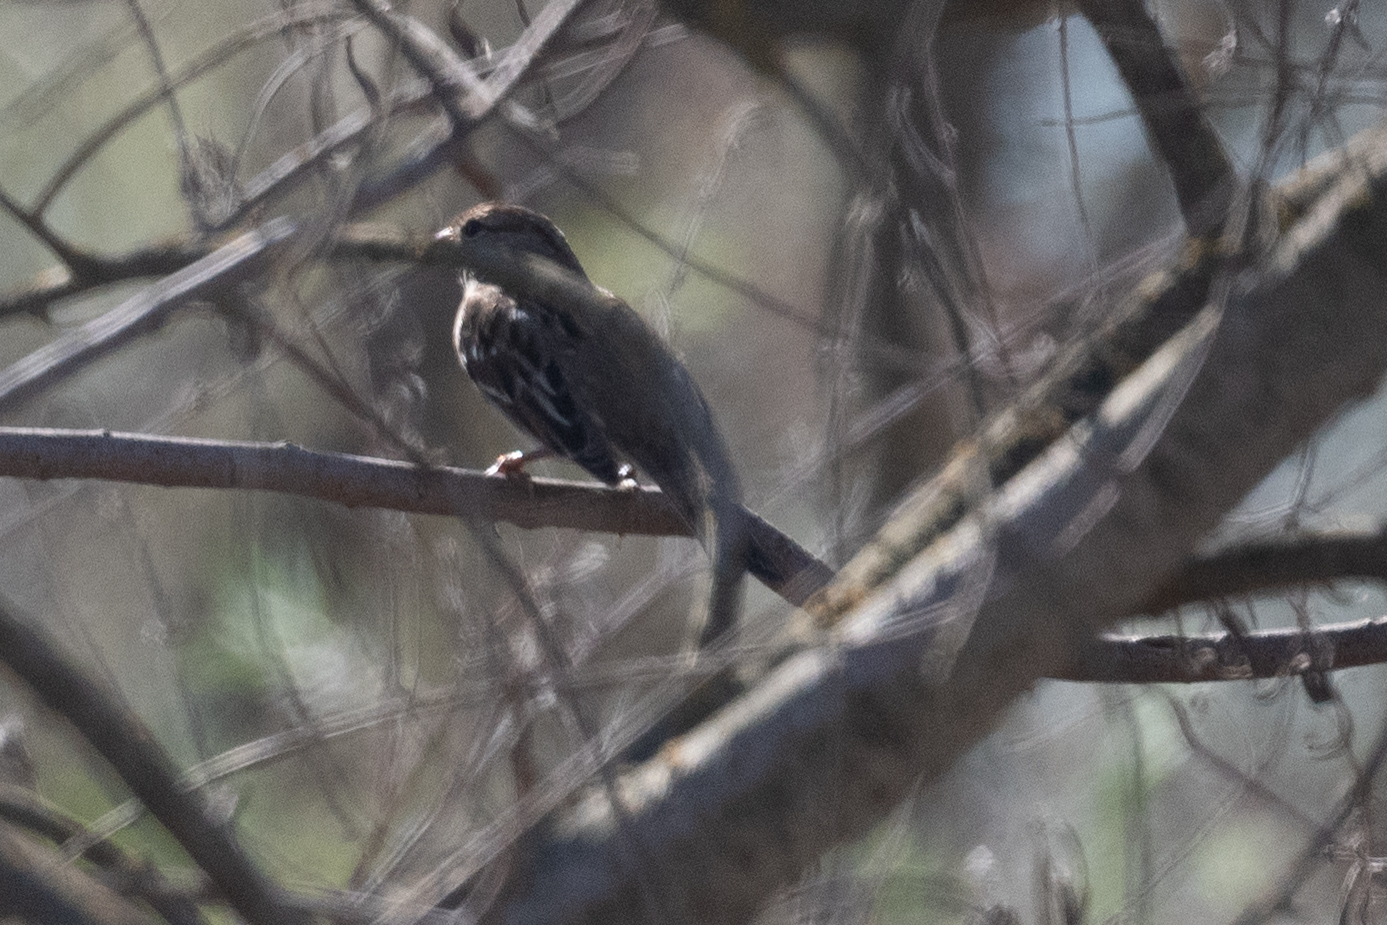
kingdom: Animalia
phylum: Chordata
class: Aves
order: Passeriformes
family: Passerellidae
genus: Zonotrichia
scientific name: Zonotrichia leucophrys
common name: White-crowned sparrow
